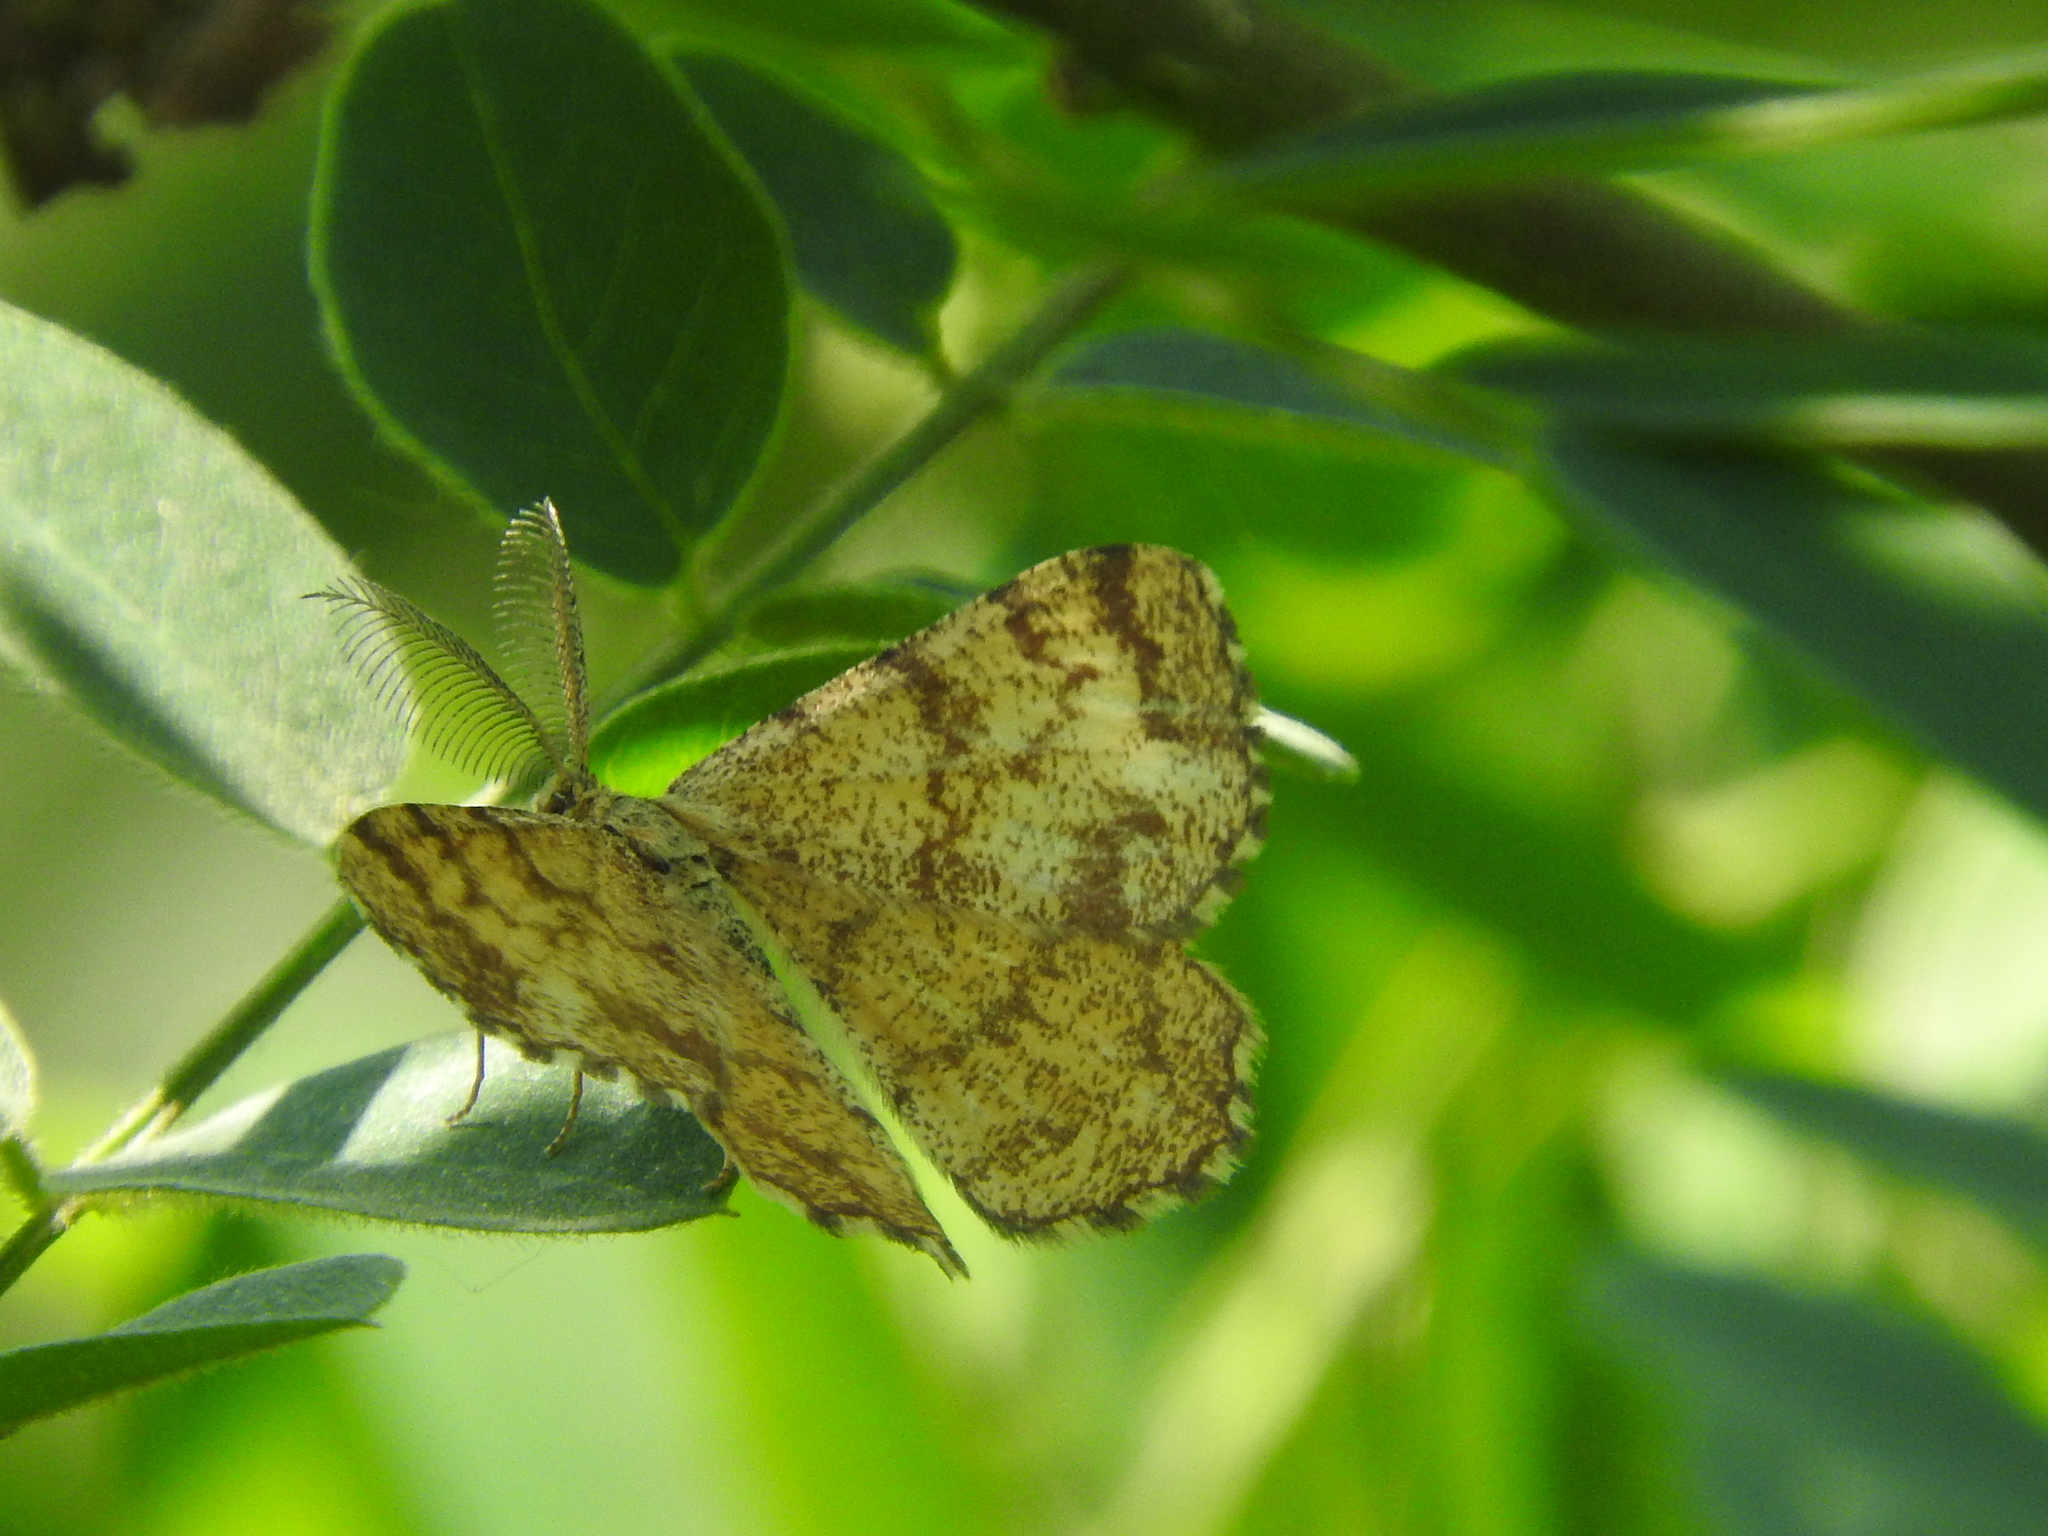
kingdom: Animalia
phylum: Arthropoda
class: Insecta
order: Lepidoptera
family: Geometridae
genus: Ematurga
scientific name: Ematurga atomaria
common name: Common heath
